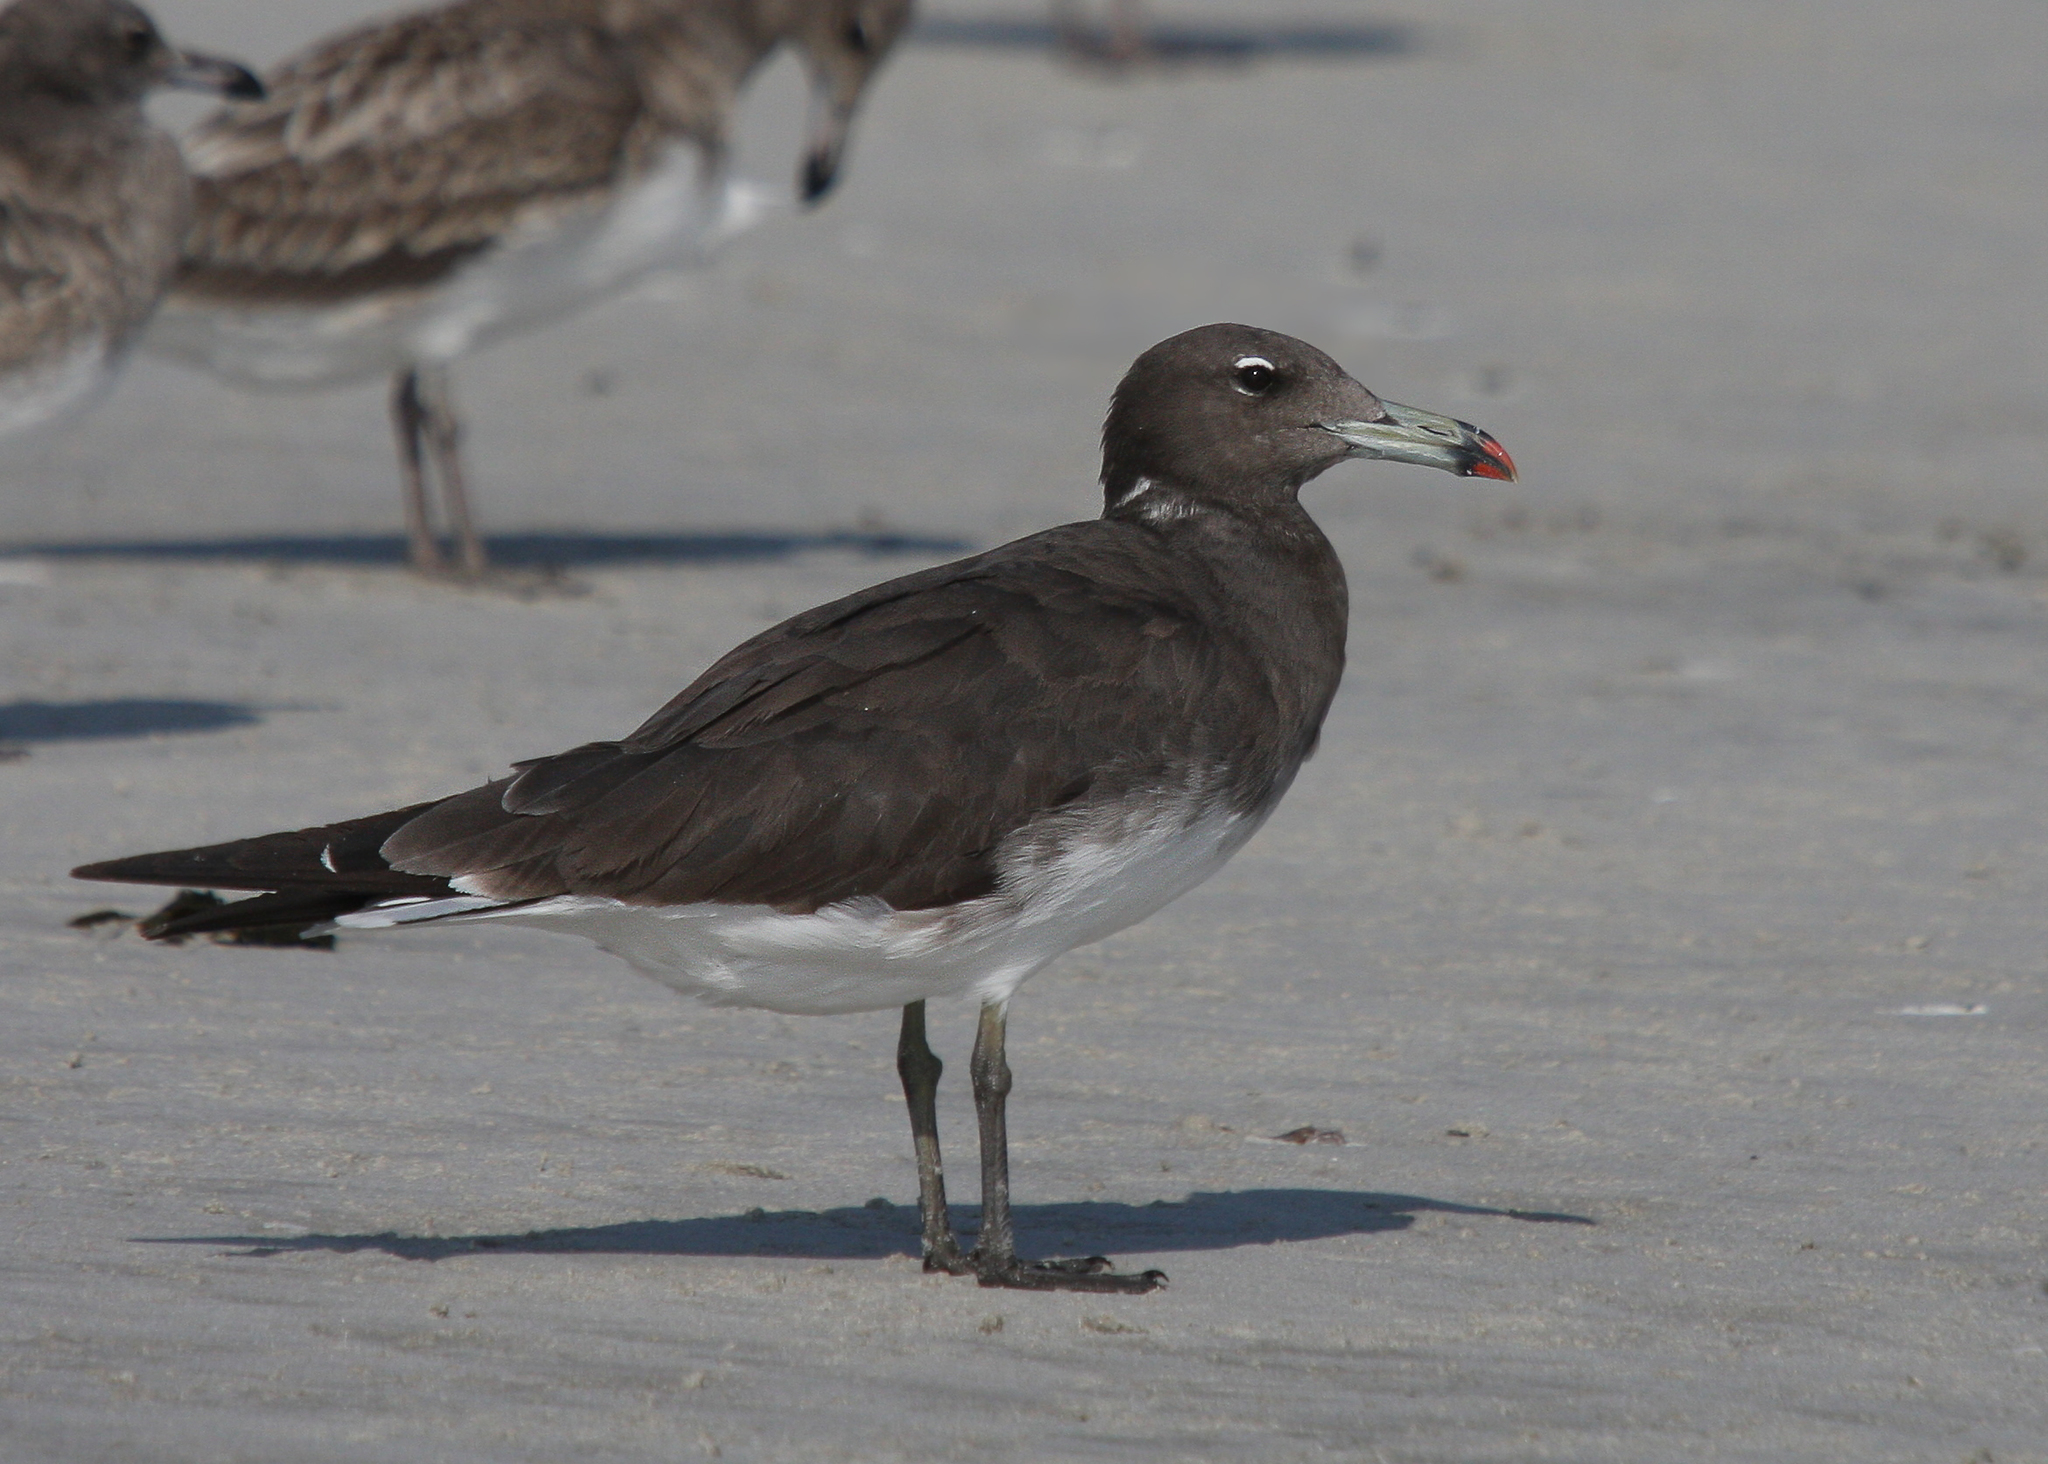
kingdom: Animalia
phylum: Chordata
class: Aves
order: Charadriiformes
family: Laridae
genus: Ichthyaetus
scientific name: Ichthyaetus hemprichii
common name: Sooty gull
